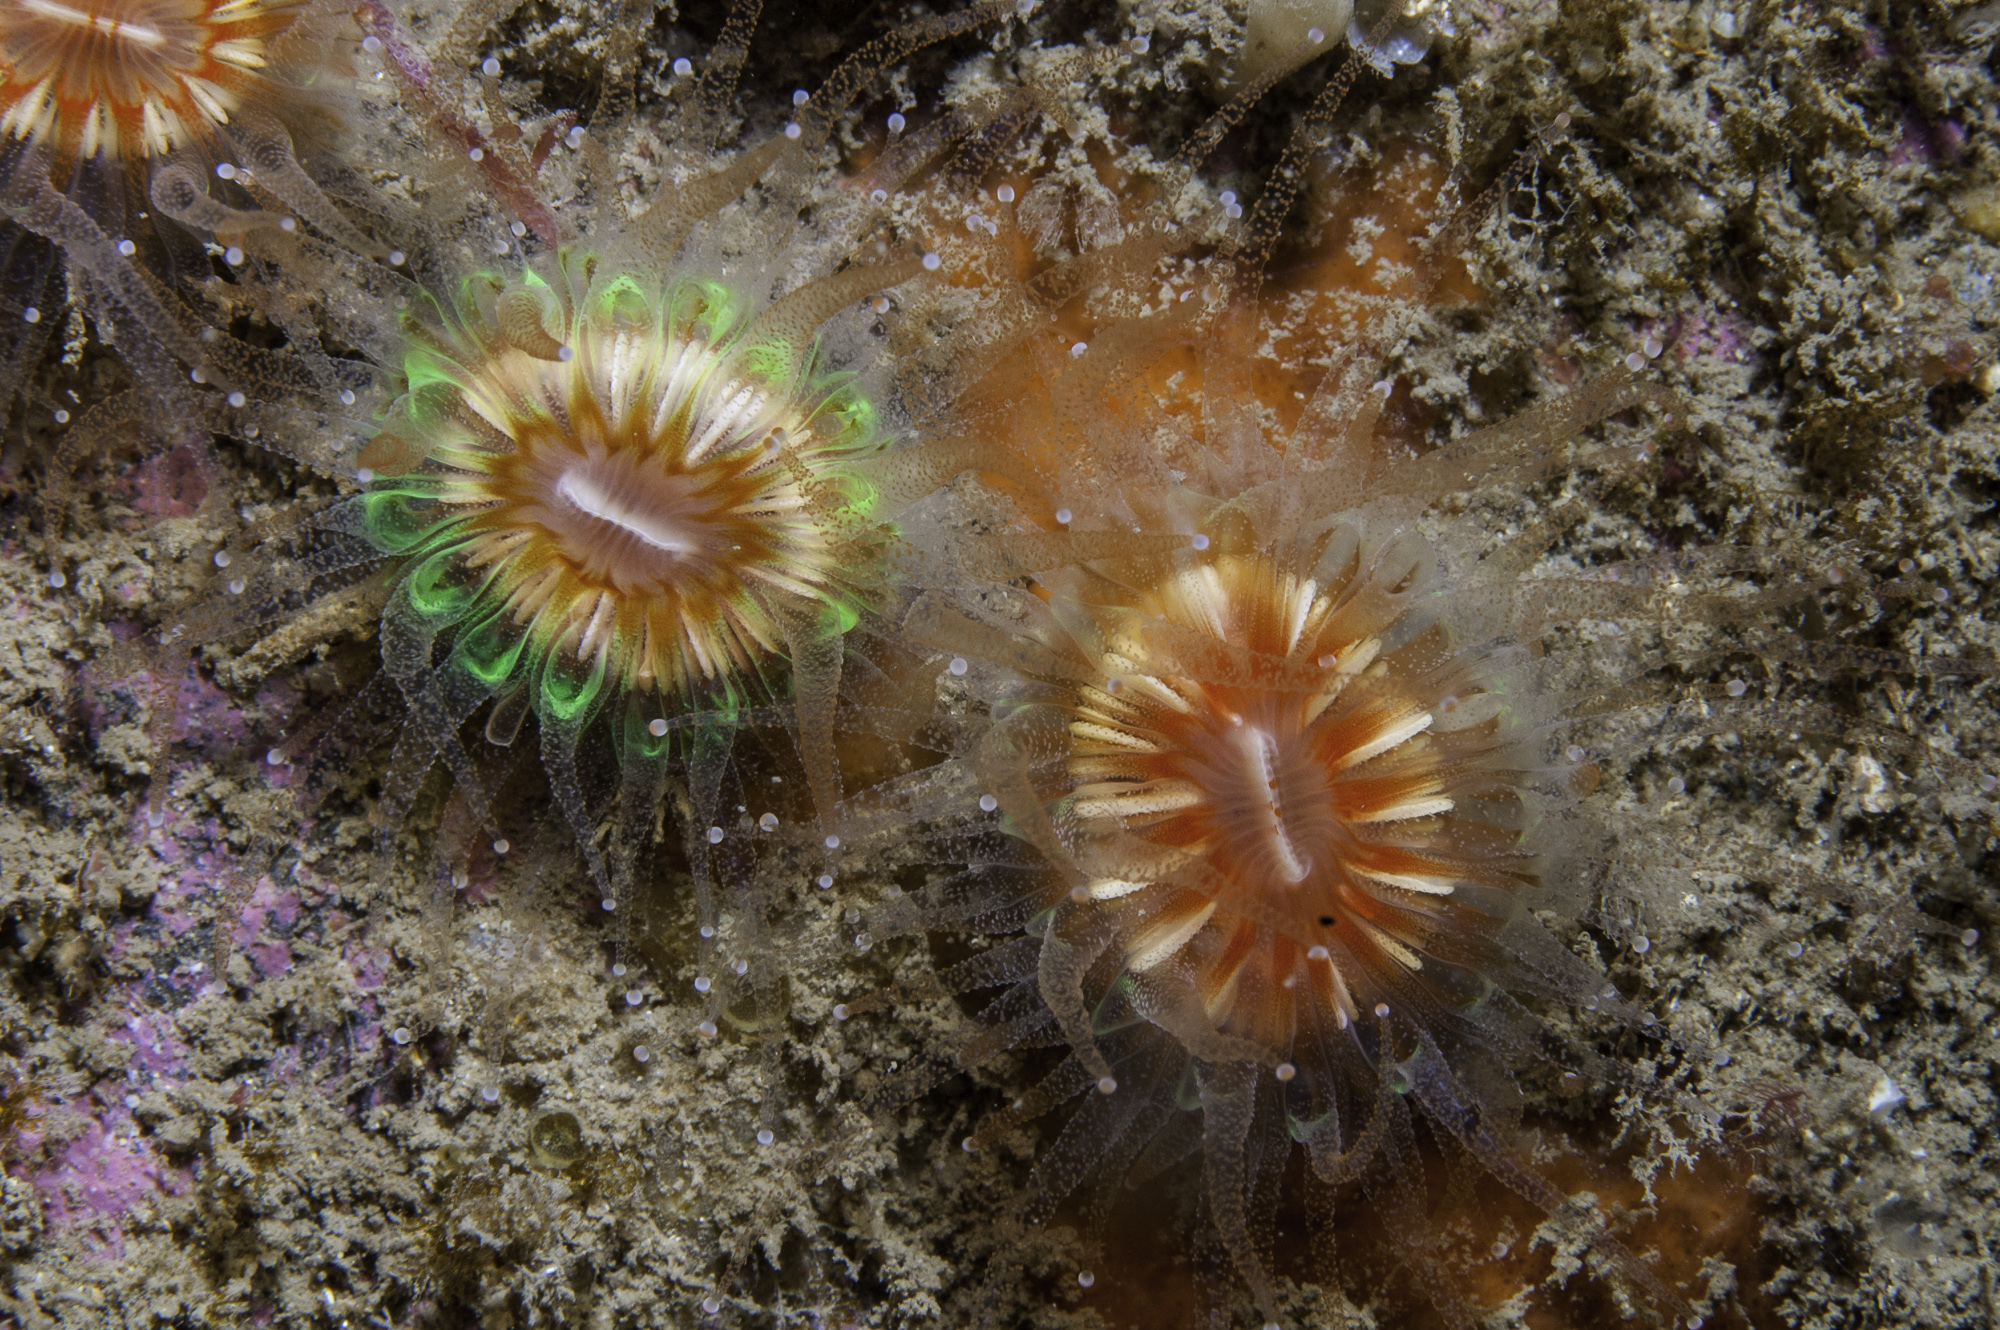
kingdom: Animalia
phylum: Cnidaria
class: Anthozoa
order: Scleractinia
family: Caryophylliidae
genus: Caryophyllia
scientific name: Caryophyllia smithii
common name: Devonshire cup coral
